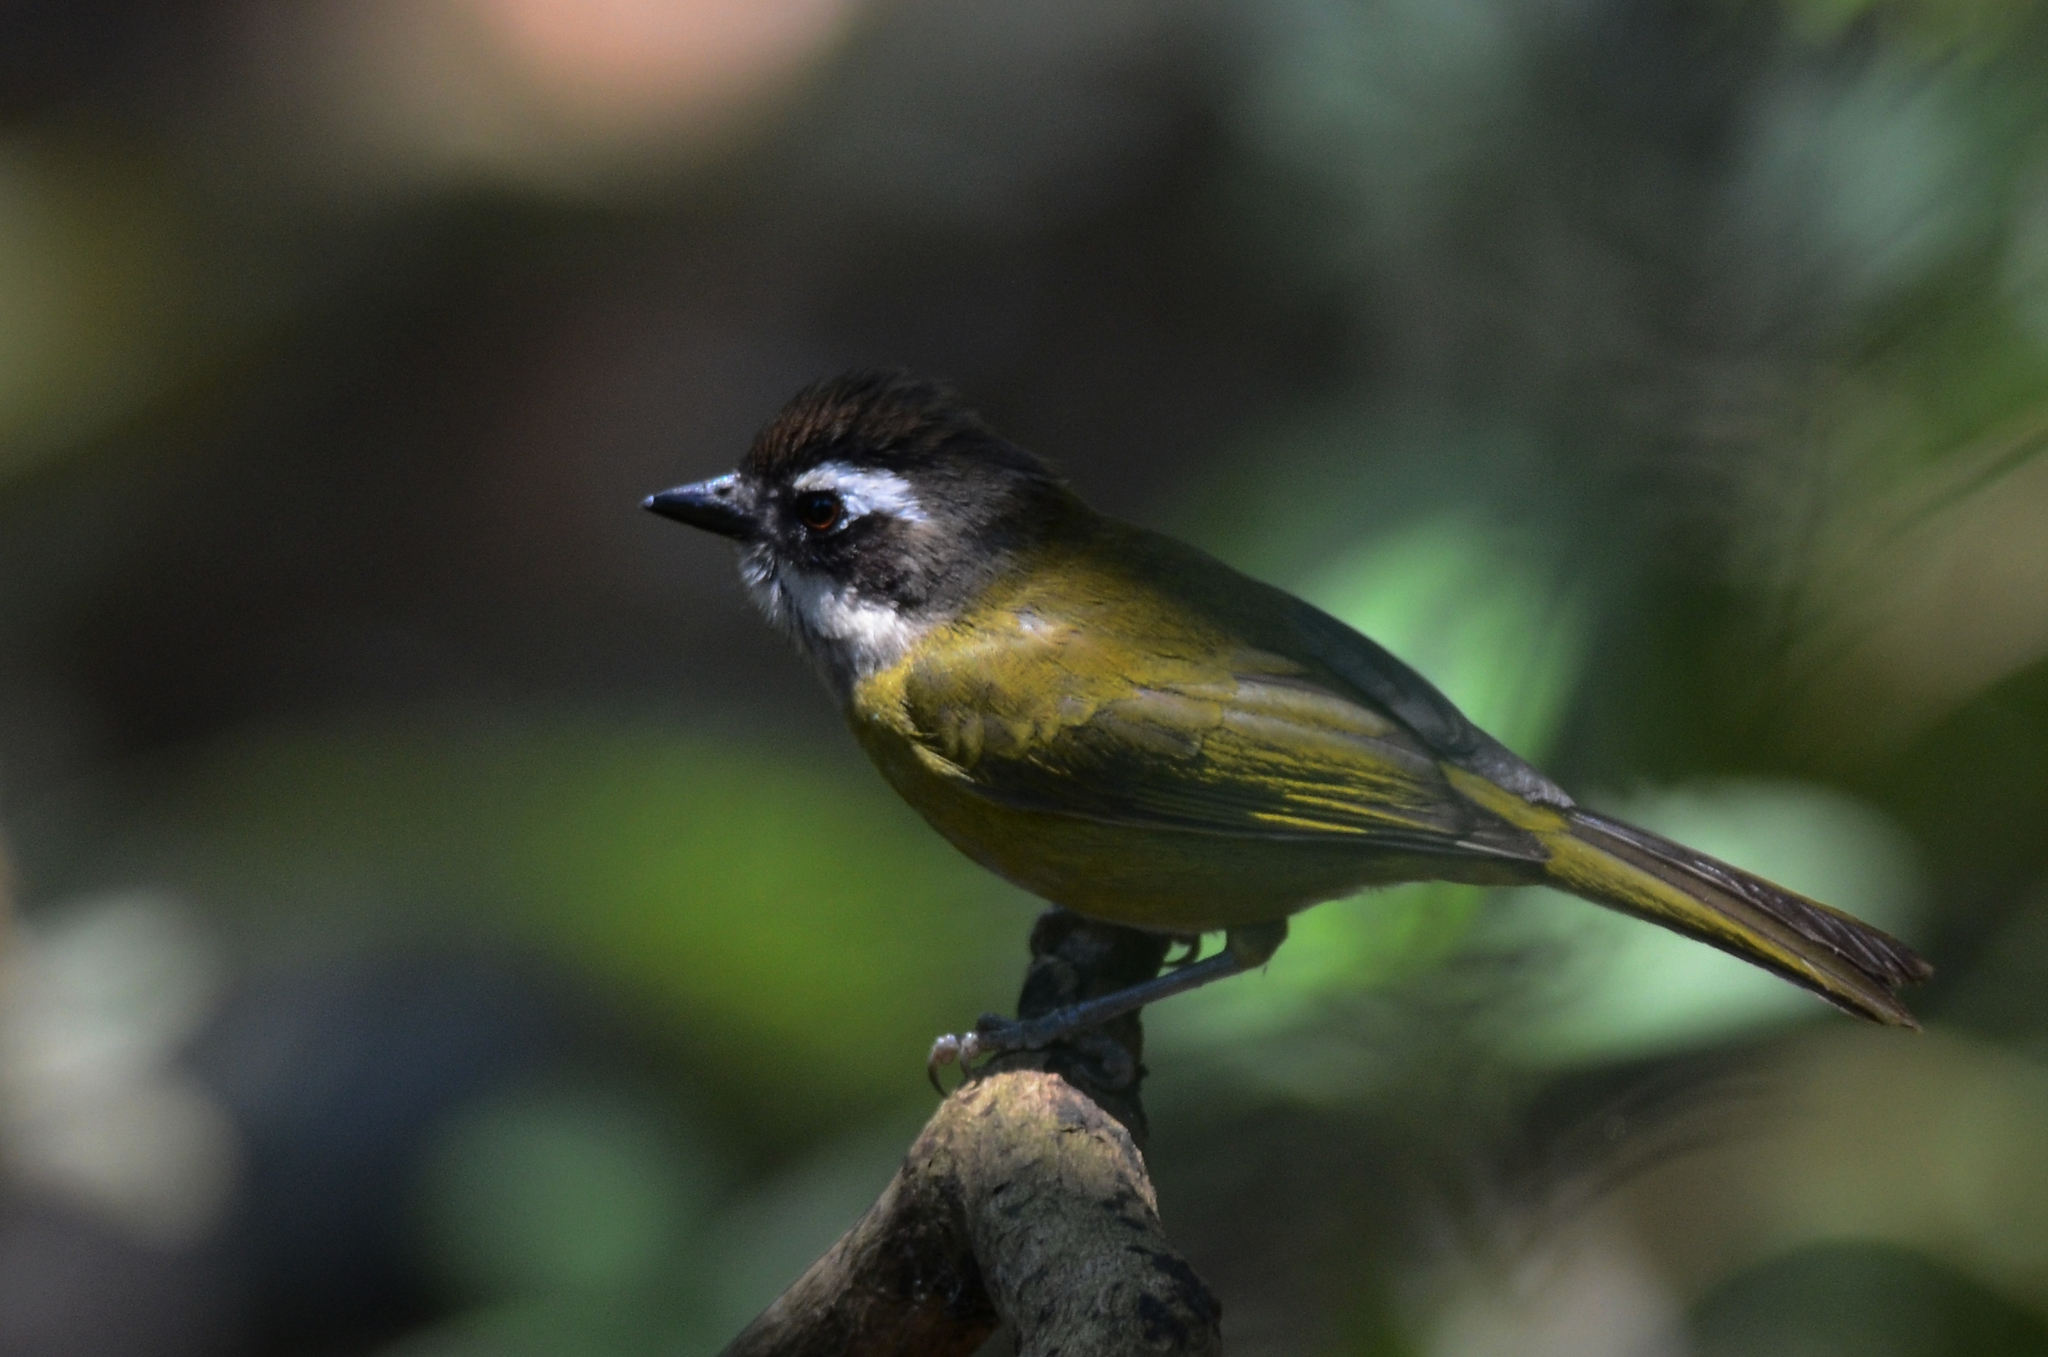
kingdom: Animalia
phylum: Chordata
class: Aves
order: Passeriformes
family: Passerellidae
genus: Chlorospingus
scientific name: Chlorospingus flavopectus
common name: Common chlorospingus
